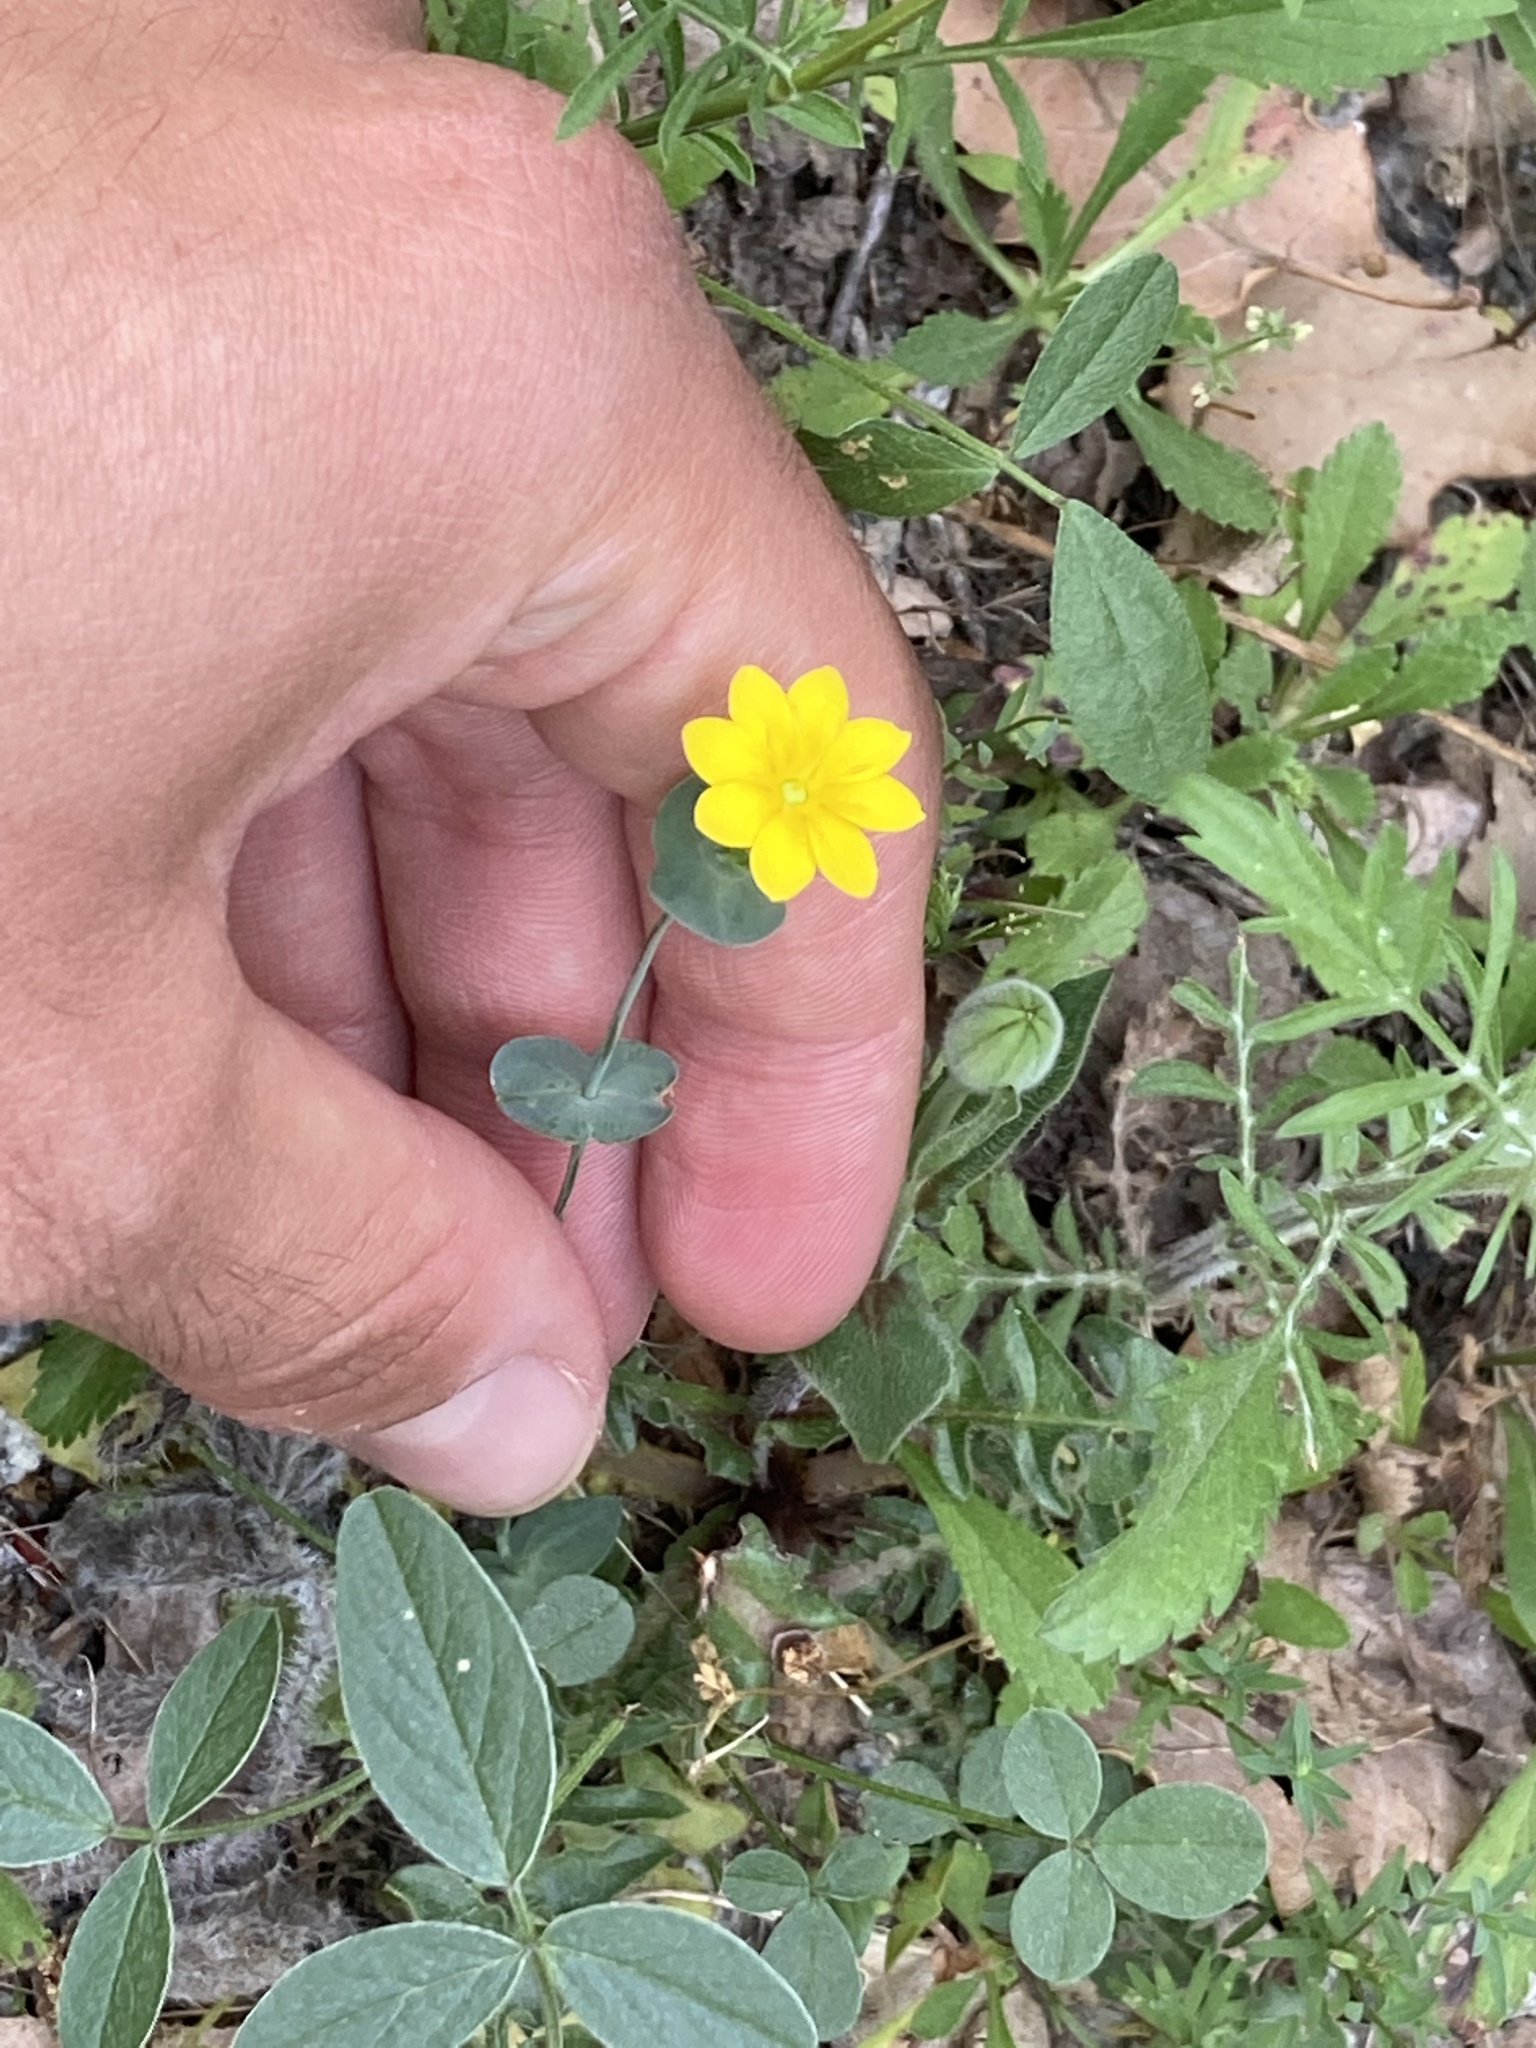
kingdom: Plantae
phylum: Tracheophyta
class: Magnoliopsida
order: Gentianales
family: Gentianaceae
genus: Blackstonia
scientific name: Blackstonia perfoliata
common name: Yellow-wort
